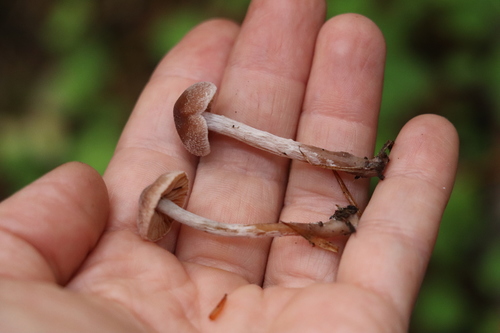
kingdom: Fungi
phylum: Basidiomycota
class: Agaricomycetes
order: Agaricales
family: Cortinariaceae
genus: Cortinarius
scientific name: Cortinarius
